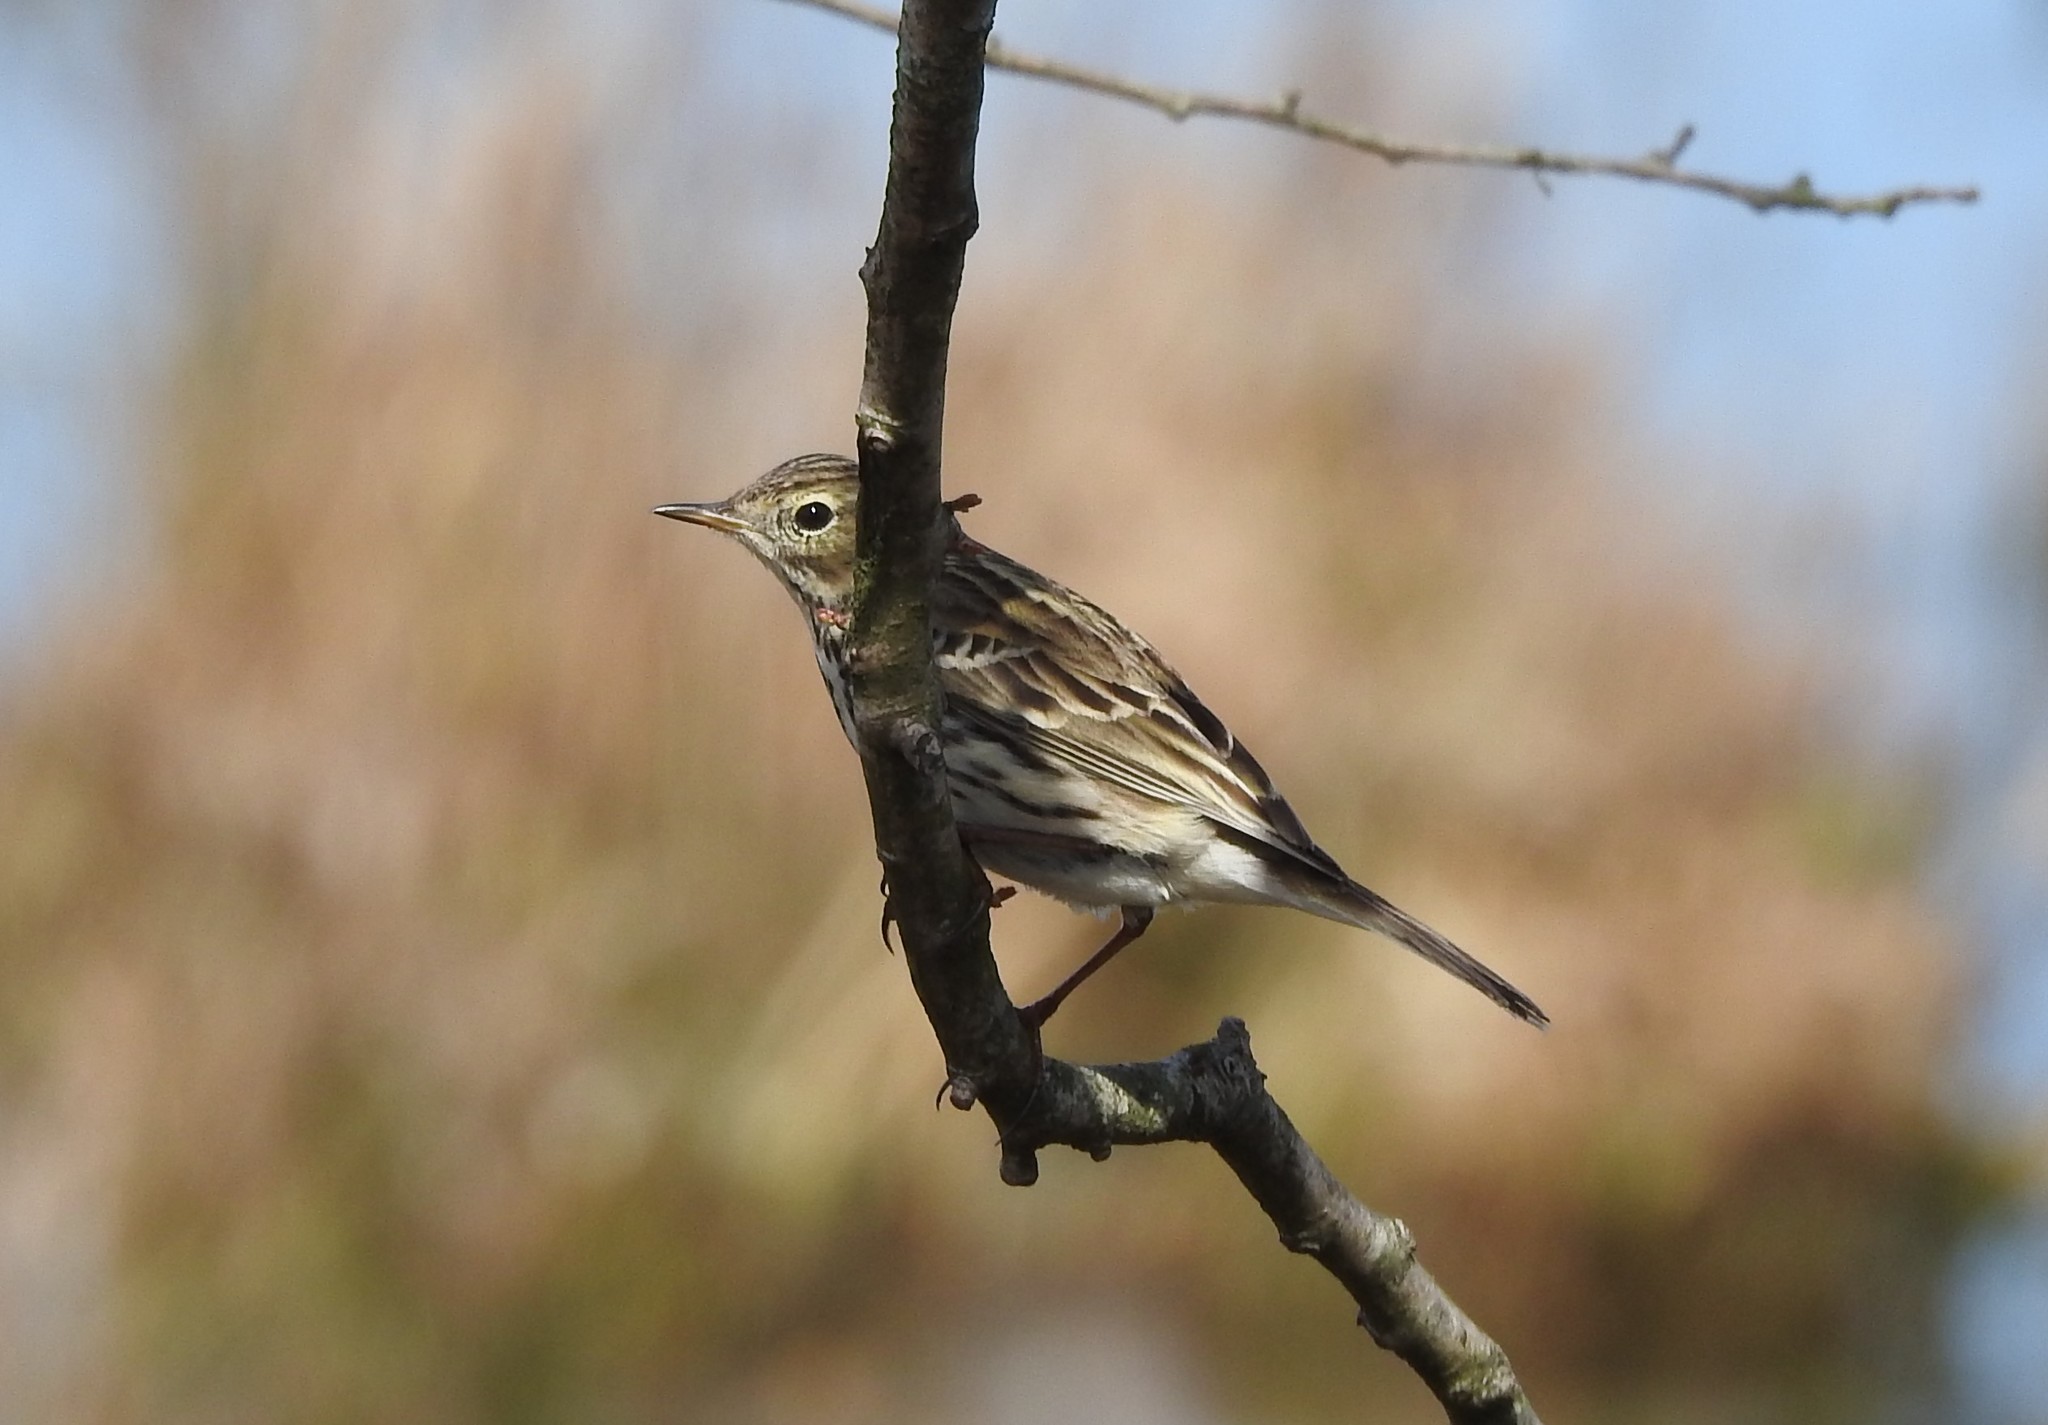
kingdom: Animalia
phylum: Chordata
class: Aves
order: Passeriformes
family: Motacillidae
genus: Anthus
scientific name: Anthus pratensis
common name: Meadow pipit
